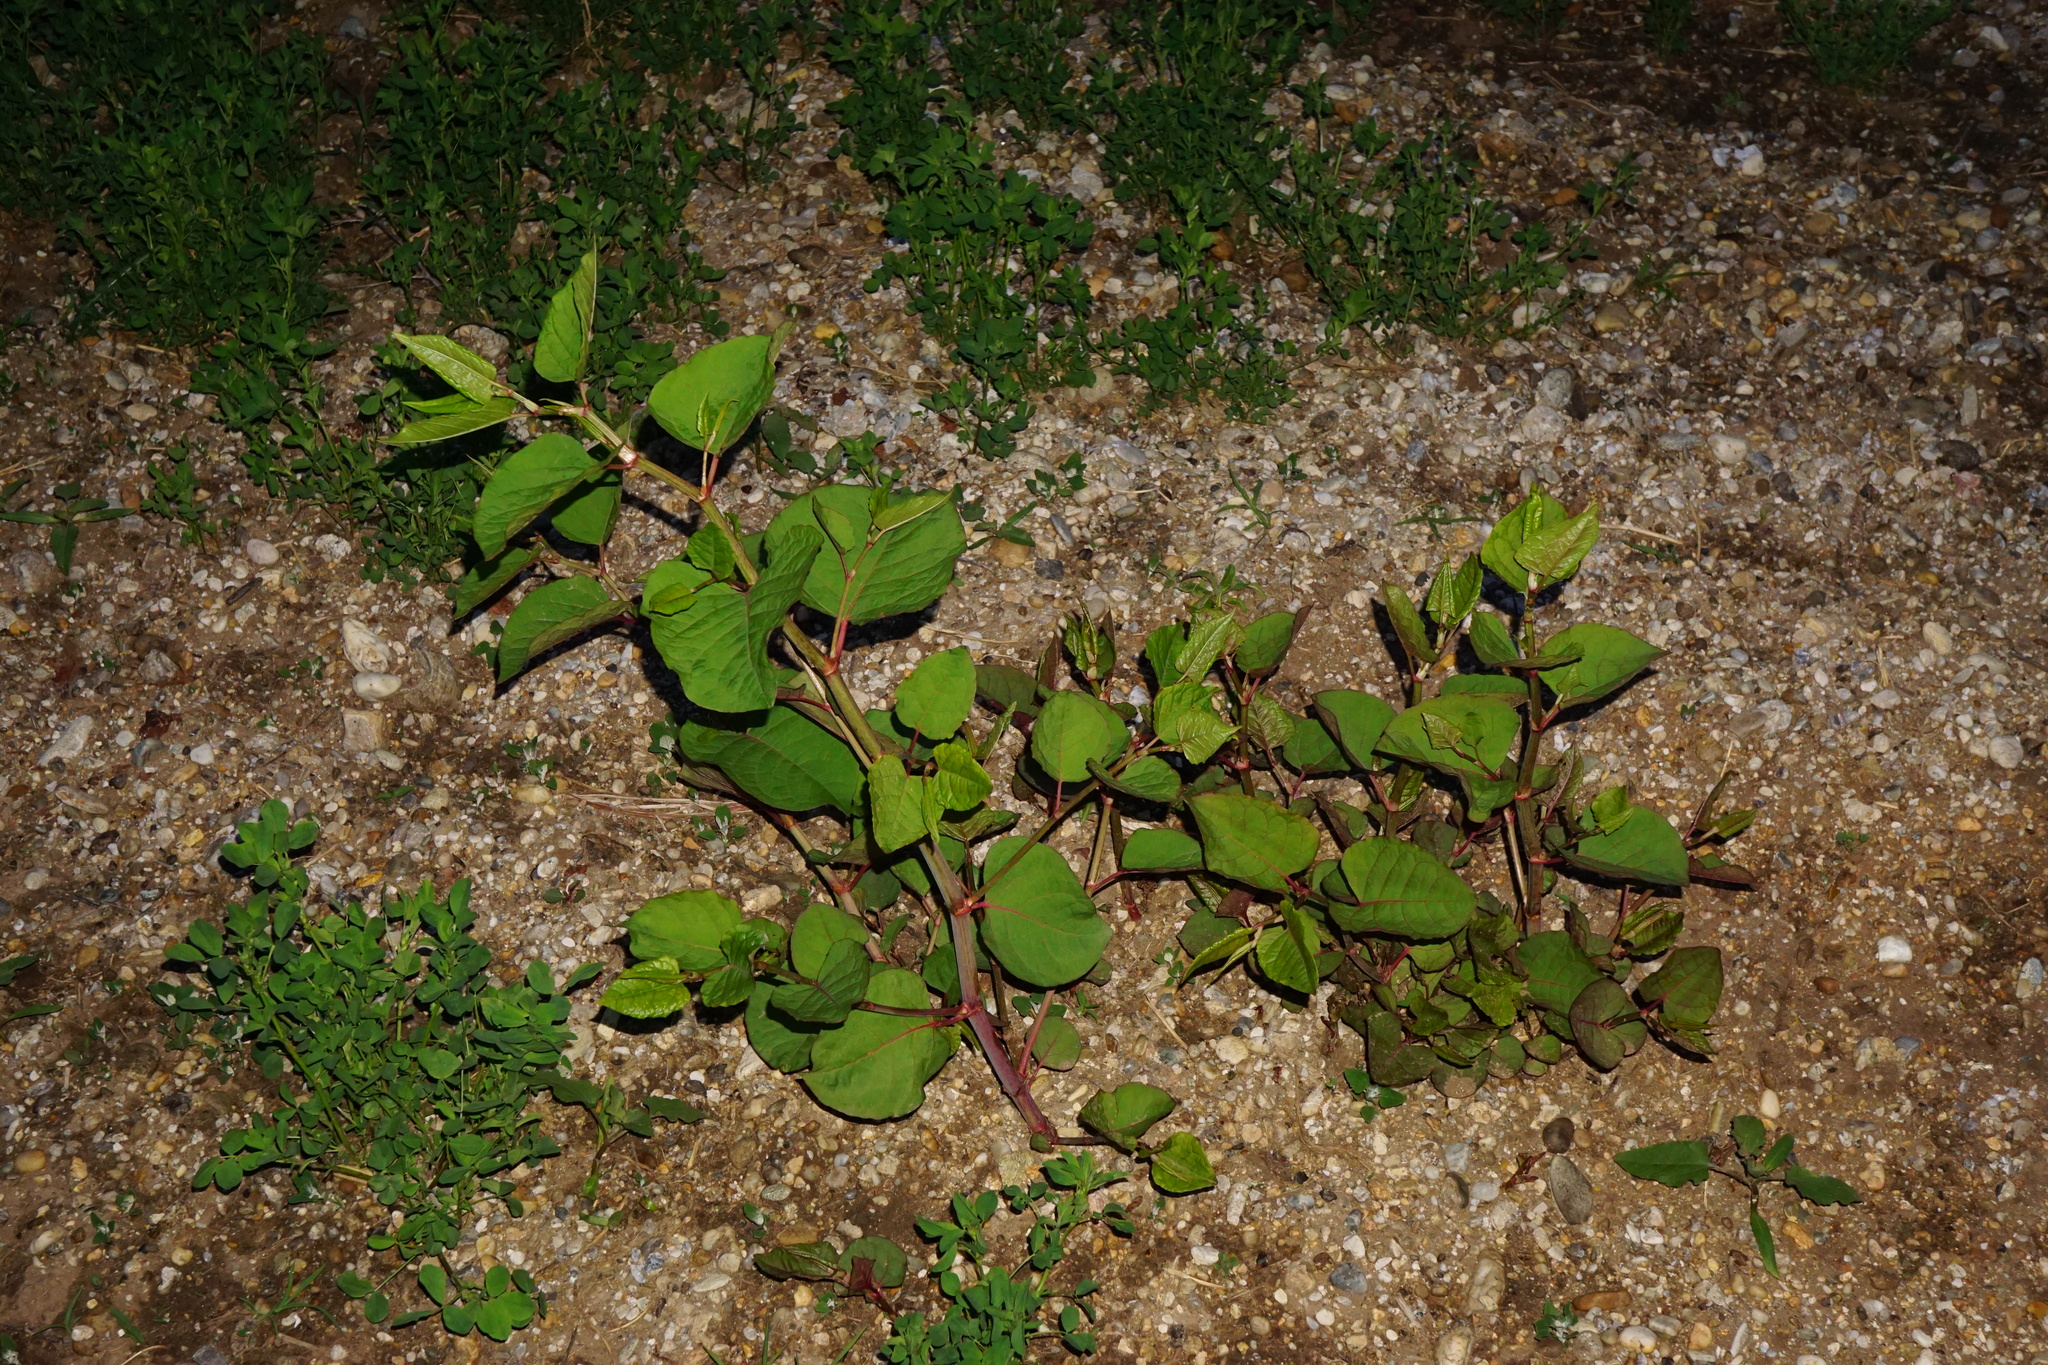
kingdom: Plantae
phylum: Tracheophyta
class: Magnoliopsida
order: Caryophyllales
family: Polygonaceae
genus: Reynoutria
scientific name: Reynoutria bohemica
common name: Bohemian knotweed
